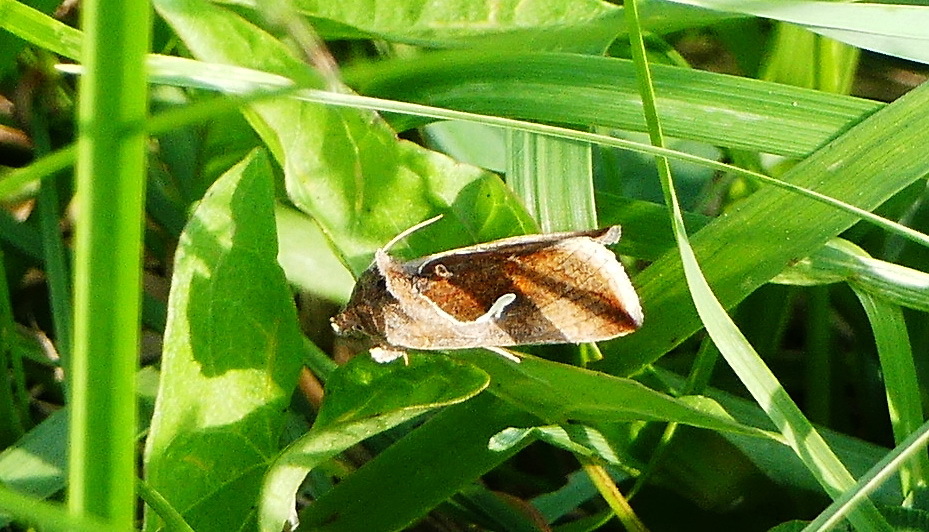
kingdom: Animalia
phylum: Arthropoda
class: Insecta
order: Lepidoptera
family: Noctuidae
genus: Anagrapha
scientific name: Anagrapha falcifera
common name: Celery looper
